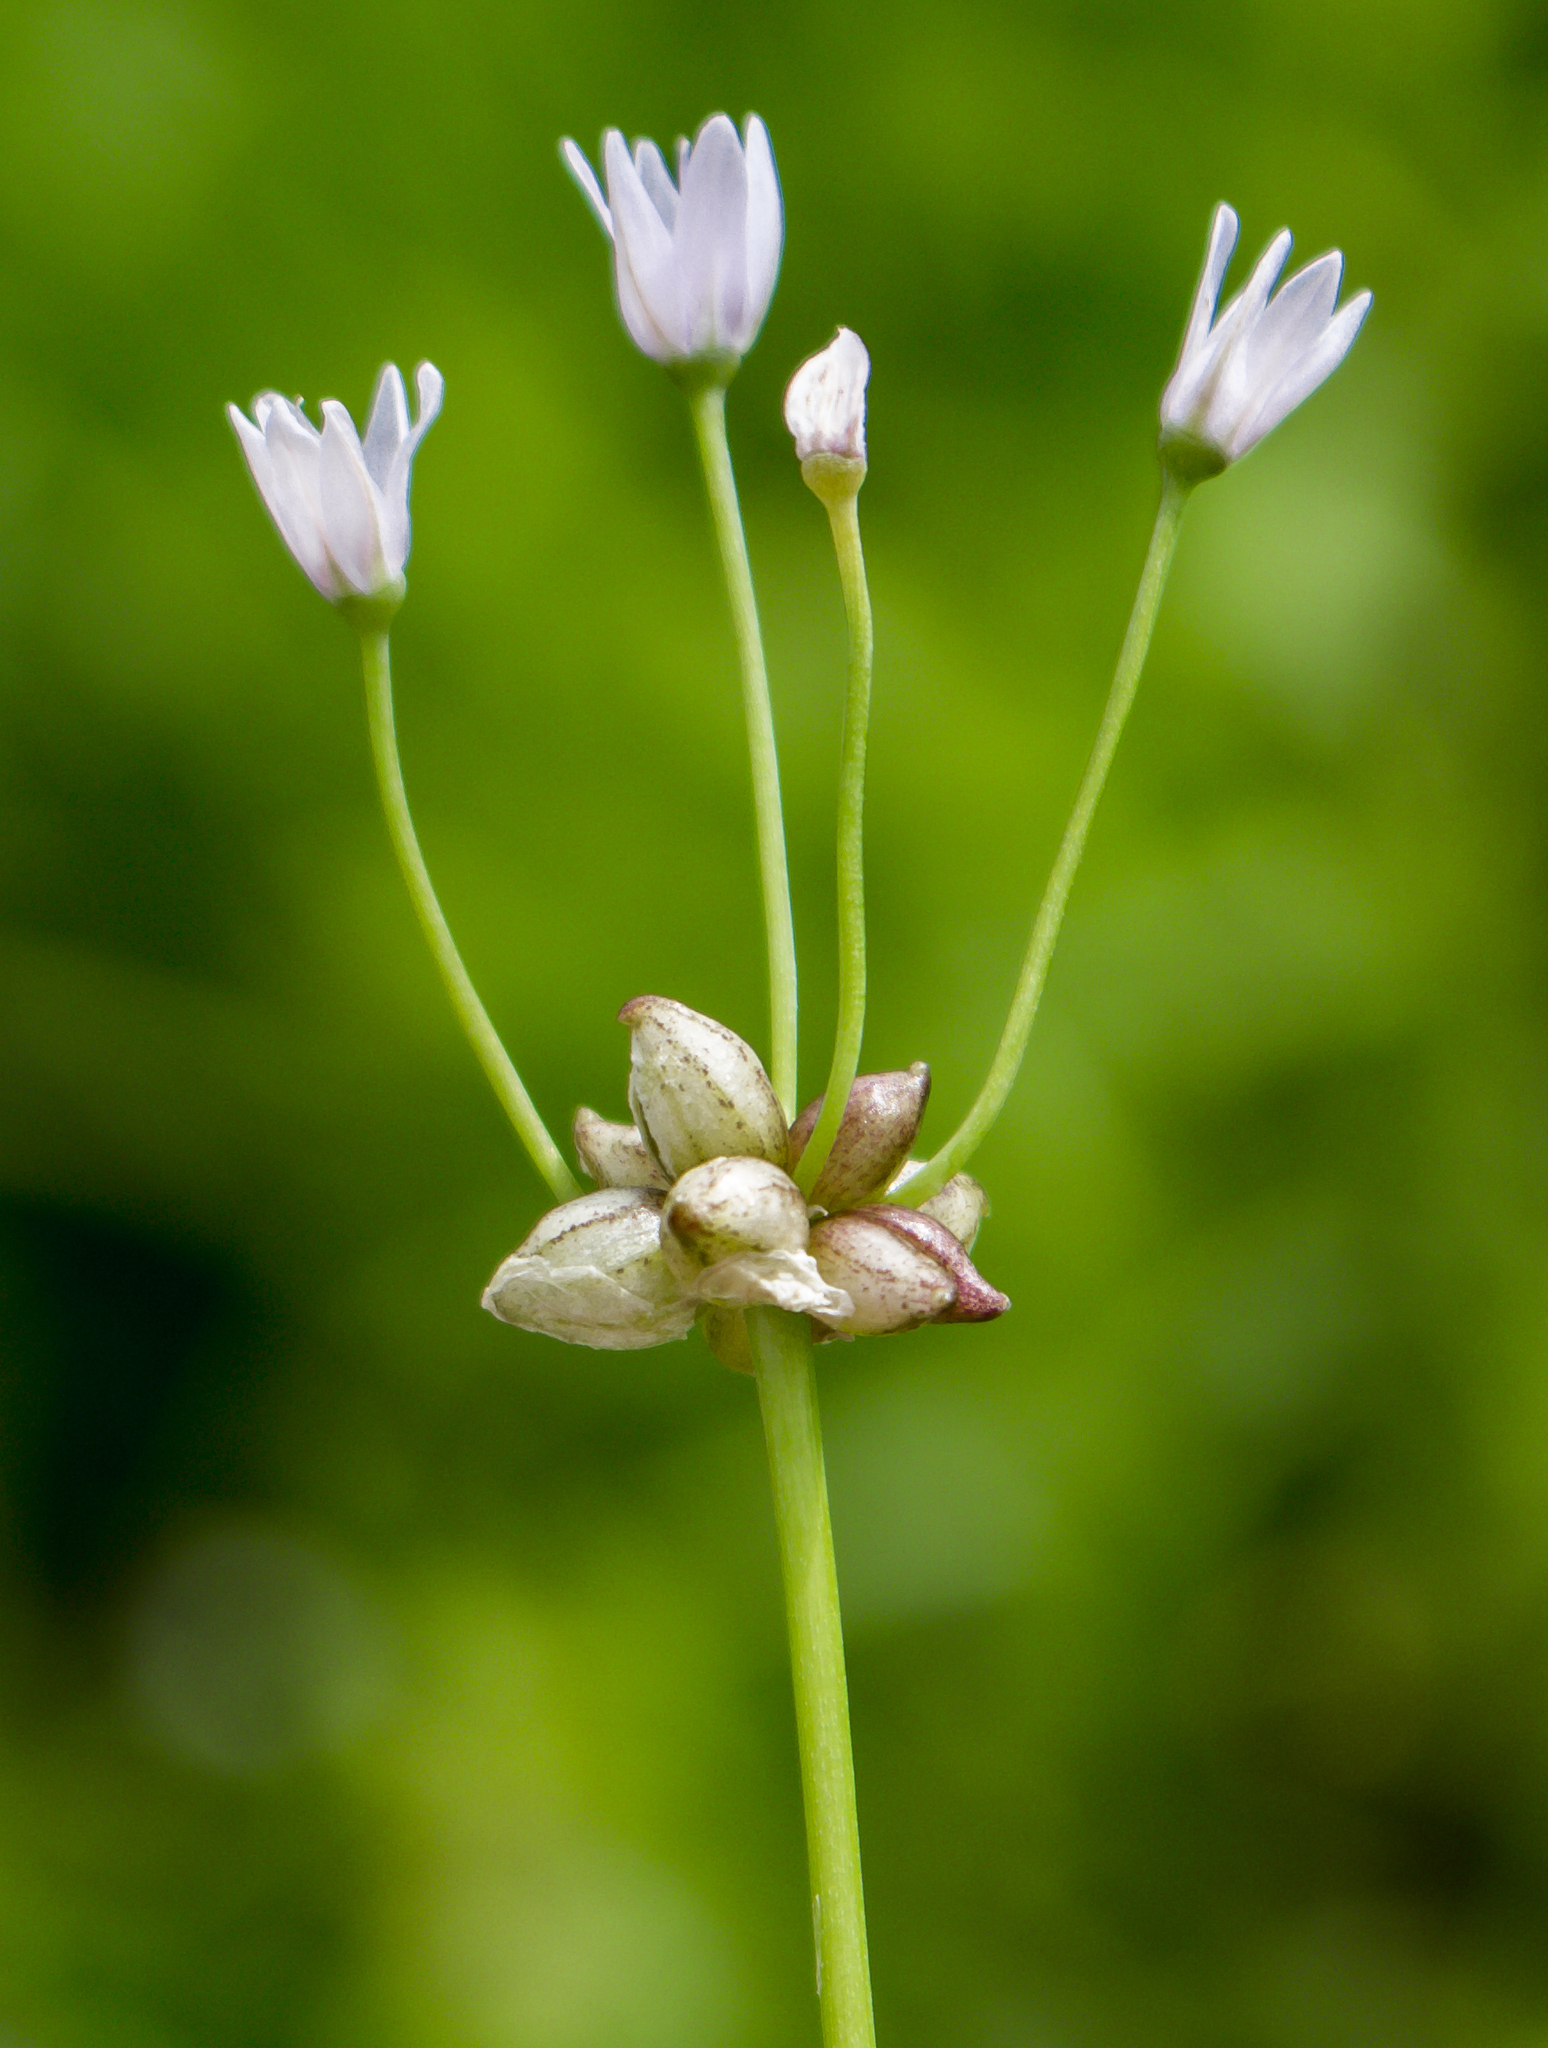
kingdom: Plantae
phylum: Tracheophyta
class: Liliopsida
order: Asparagales
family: Amaryllidaceae
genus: Allium
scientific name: Allium canadense
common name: Meadow garlic
